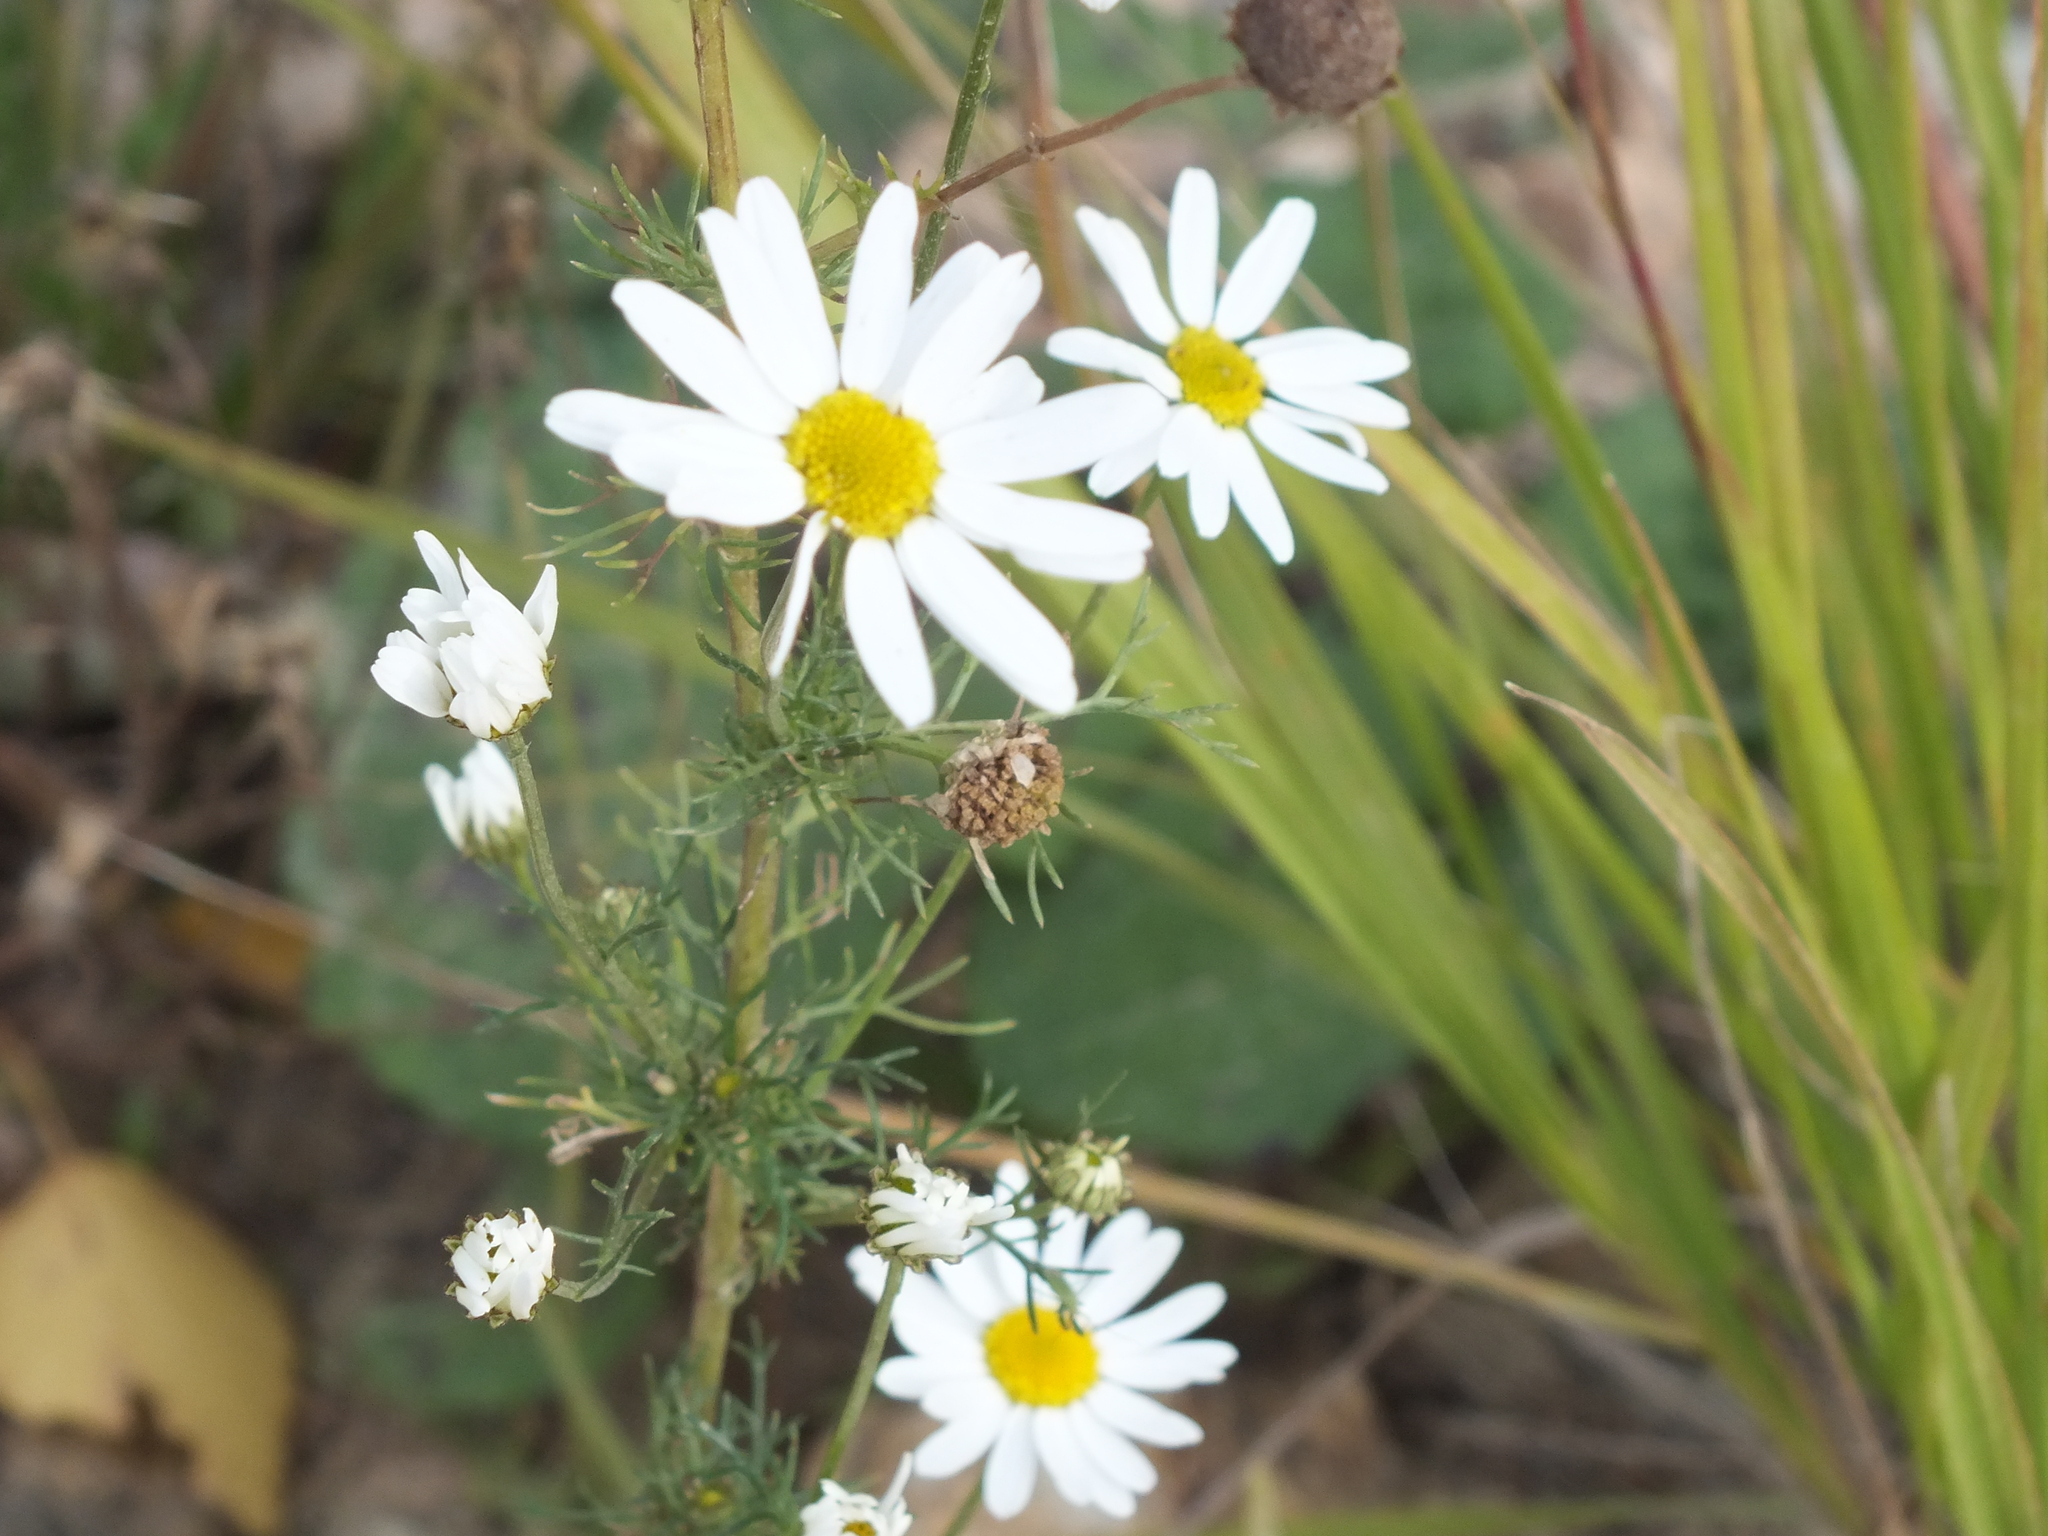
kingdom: Plantae
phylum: Tracheophyta
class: Magnoliopsida
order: Asterales
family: Asteraceae
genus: Tripleurospermum
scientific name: Tripleurospermum inodorum
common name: Scentless mayweed
